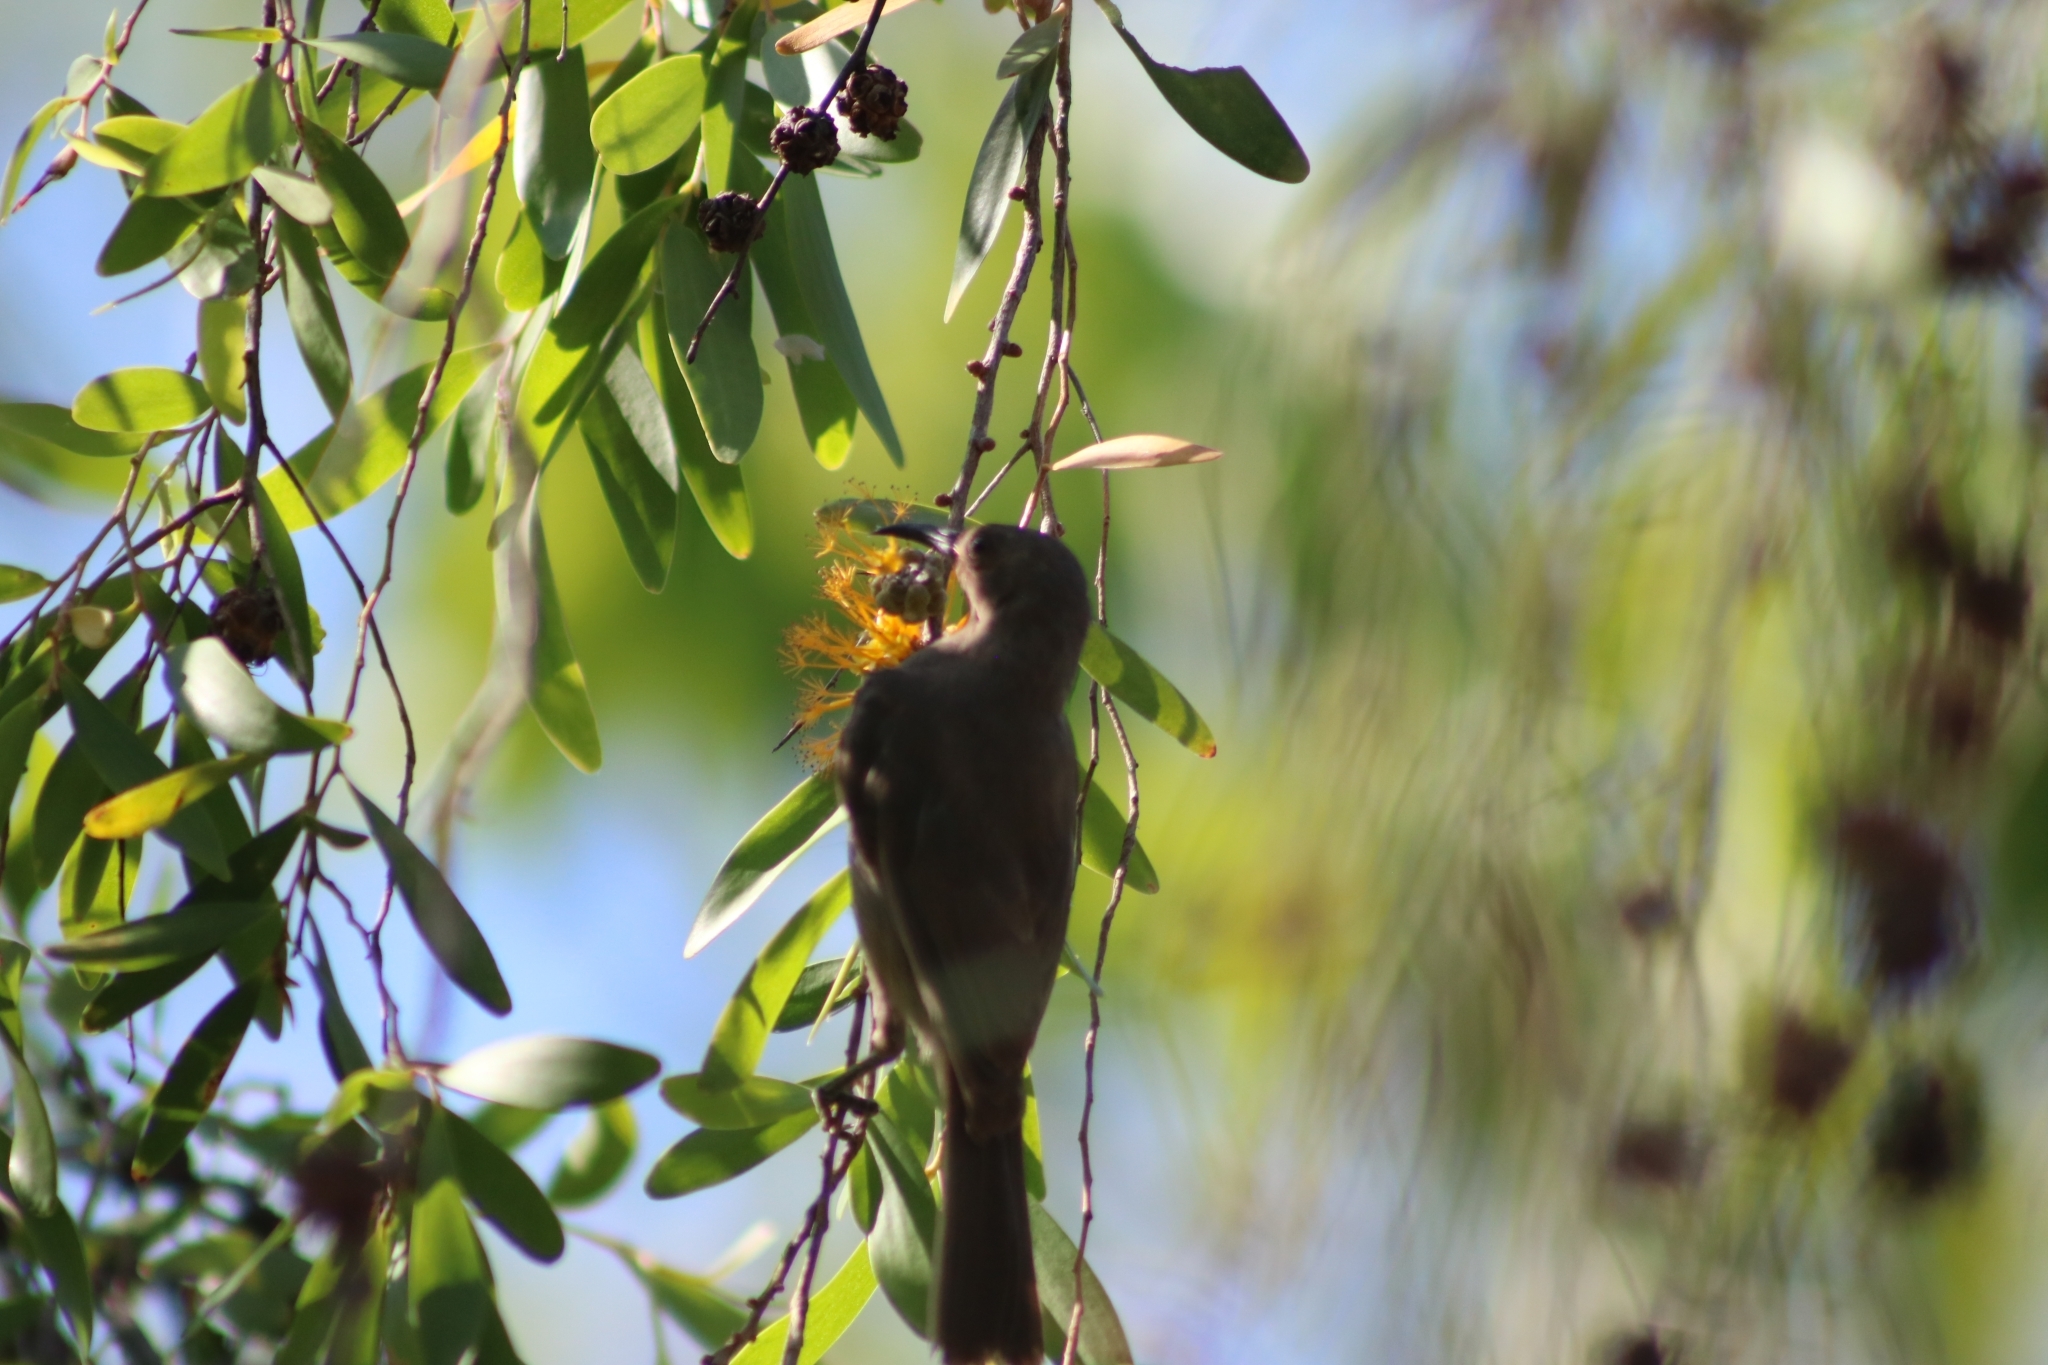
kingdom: Animalia
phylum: Chordata
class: Aves
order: Passeriformes
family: Meliphagidae
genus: Myzomela
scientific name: Myzomela obscura
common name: Dusky myzomela
